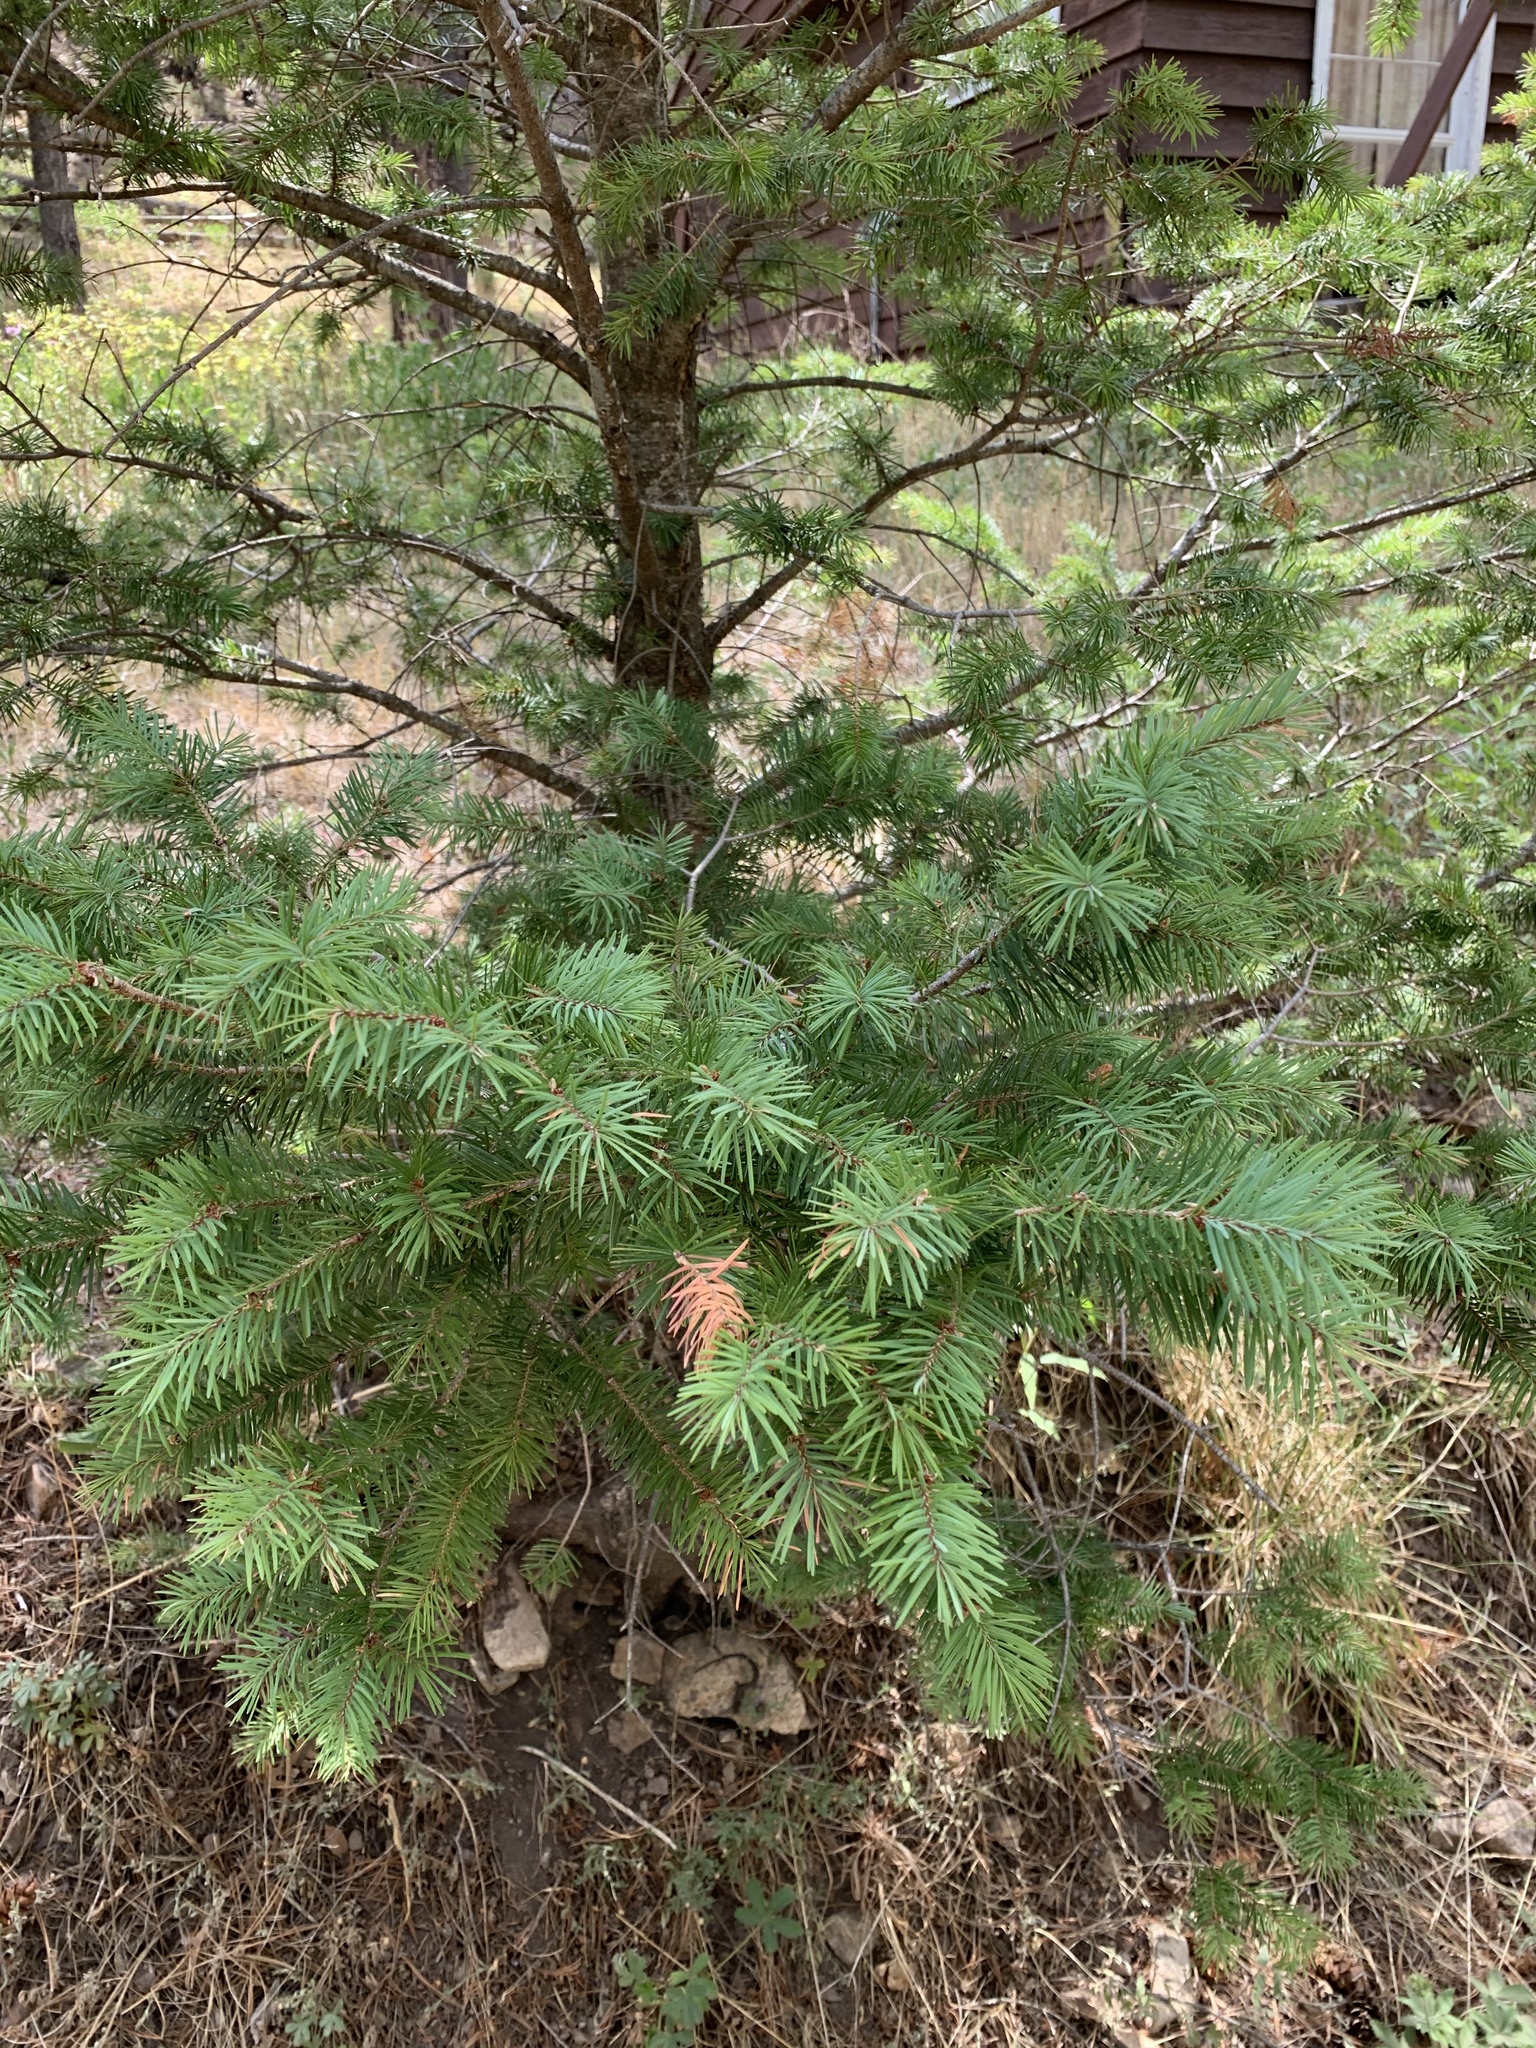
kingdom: Plantae
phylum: Tracheophyta
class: Pinopsida
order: Pinales
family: Pinaceae
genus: Pseudotsuga
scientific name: Pseudotsuga menziesii
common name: Douglas fir
